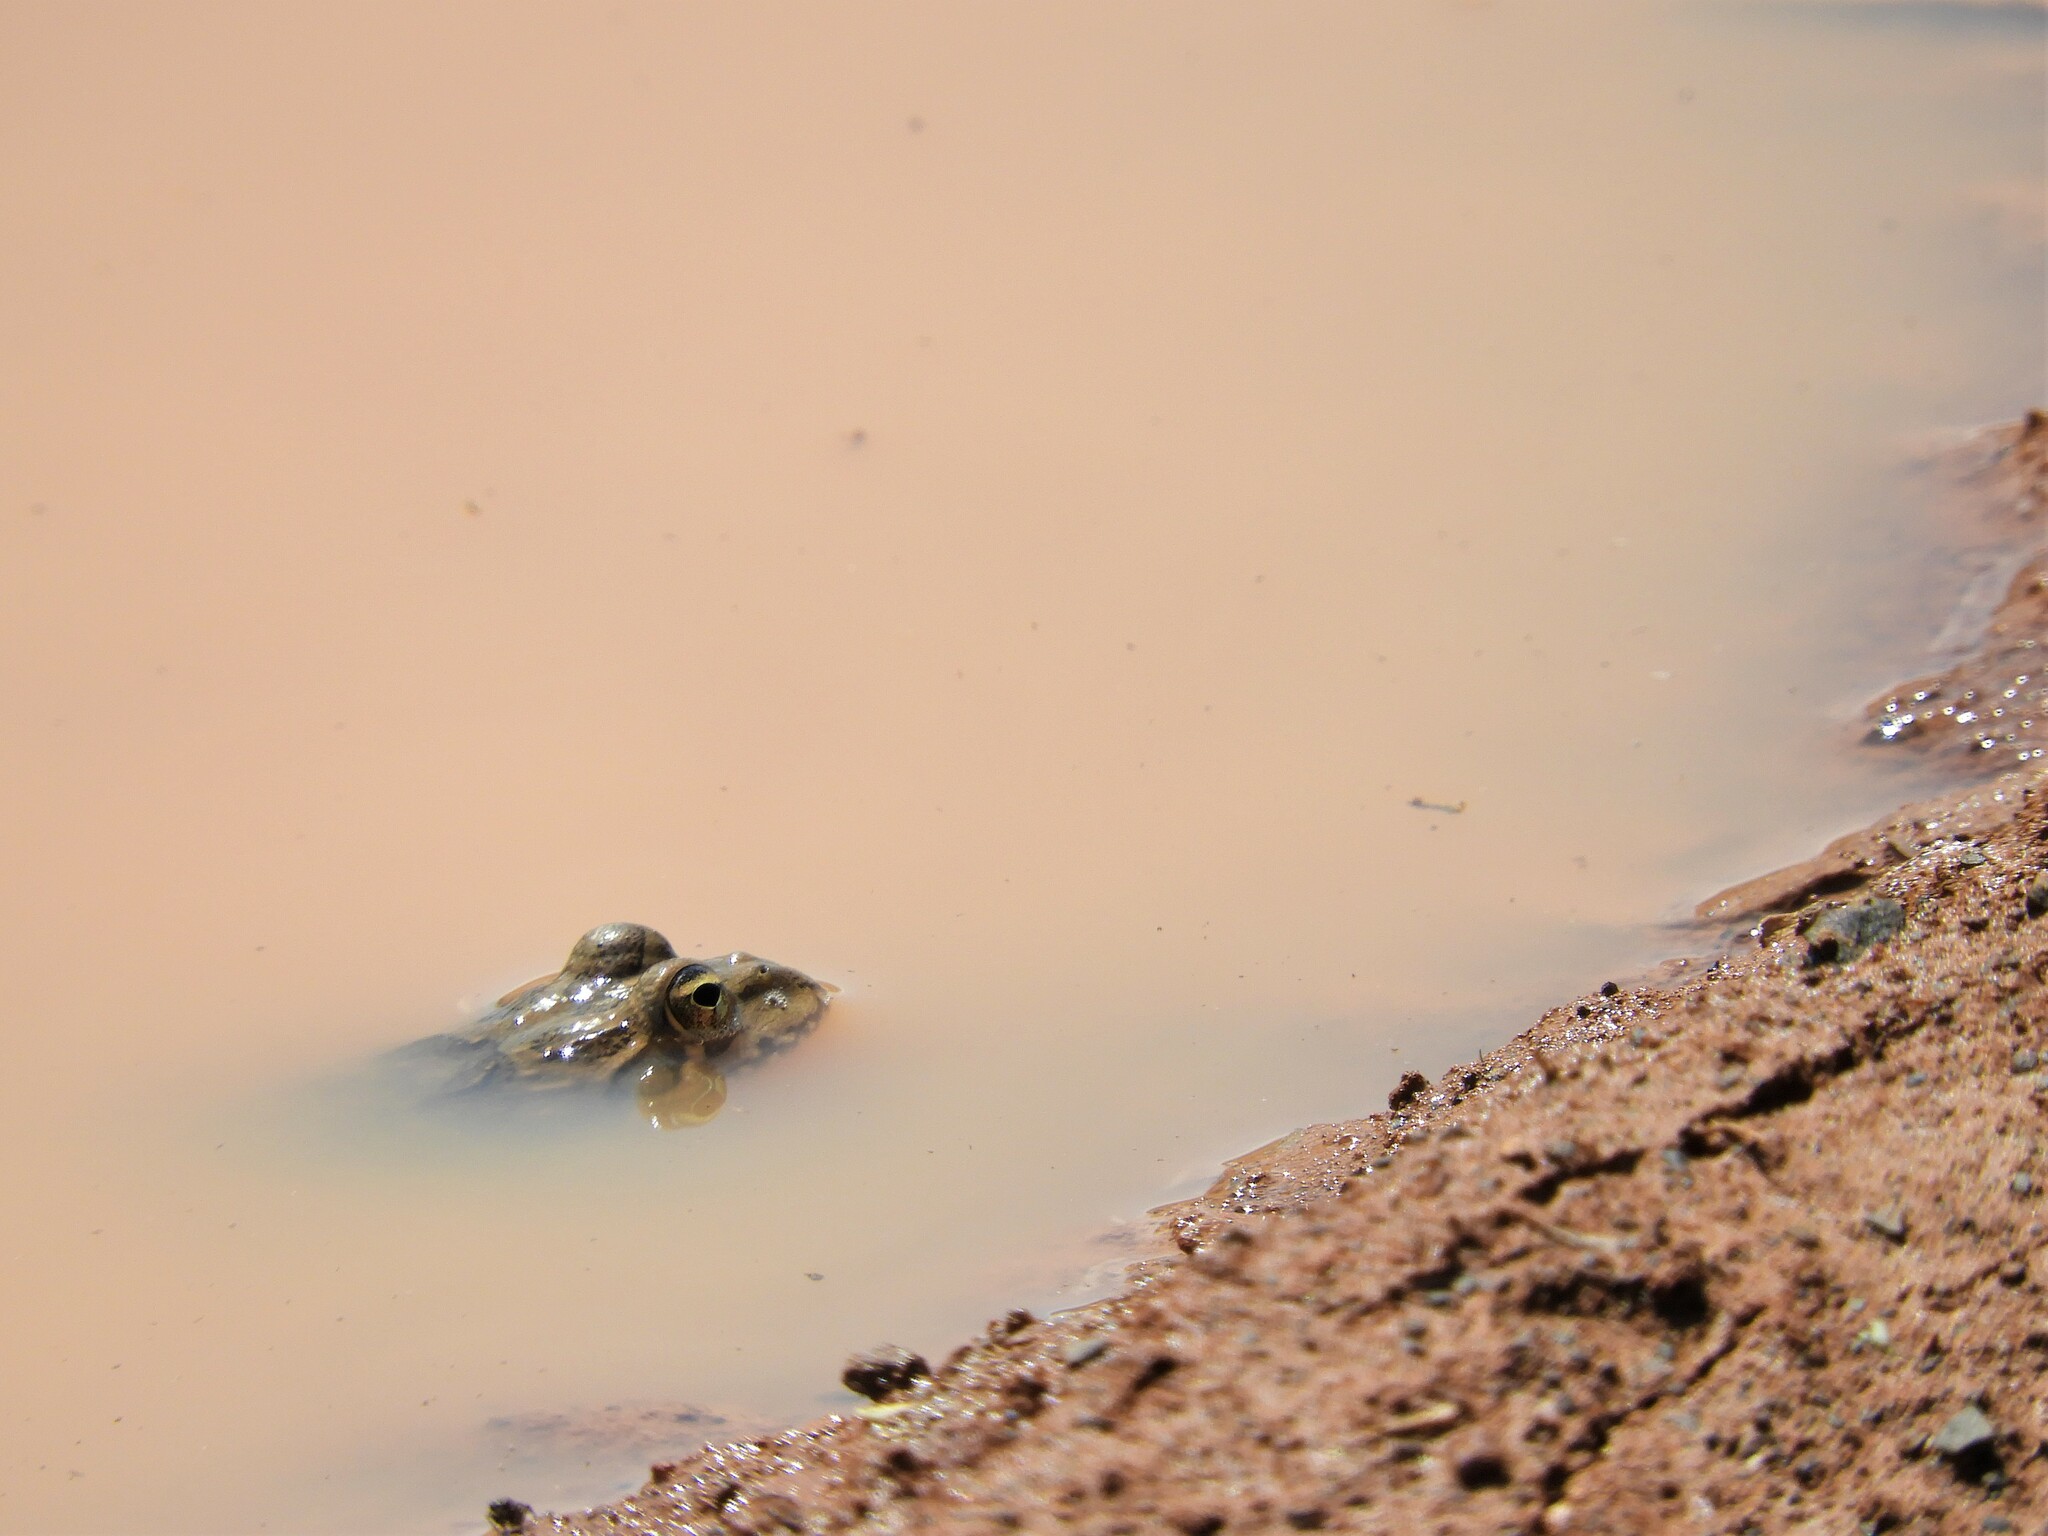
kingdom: Animalia
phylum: Chordata
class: Amphibia
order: Anura
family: Pyxicephalidae
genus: Amietia
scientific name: Amietia poyntoni
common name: Poynton's river frog
